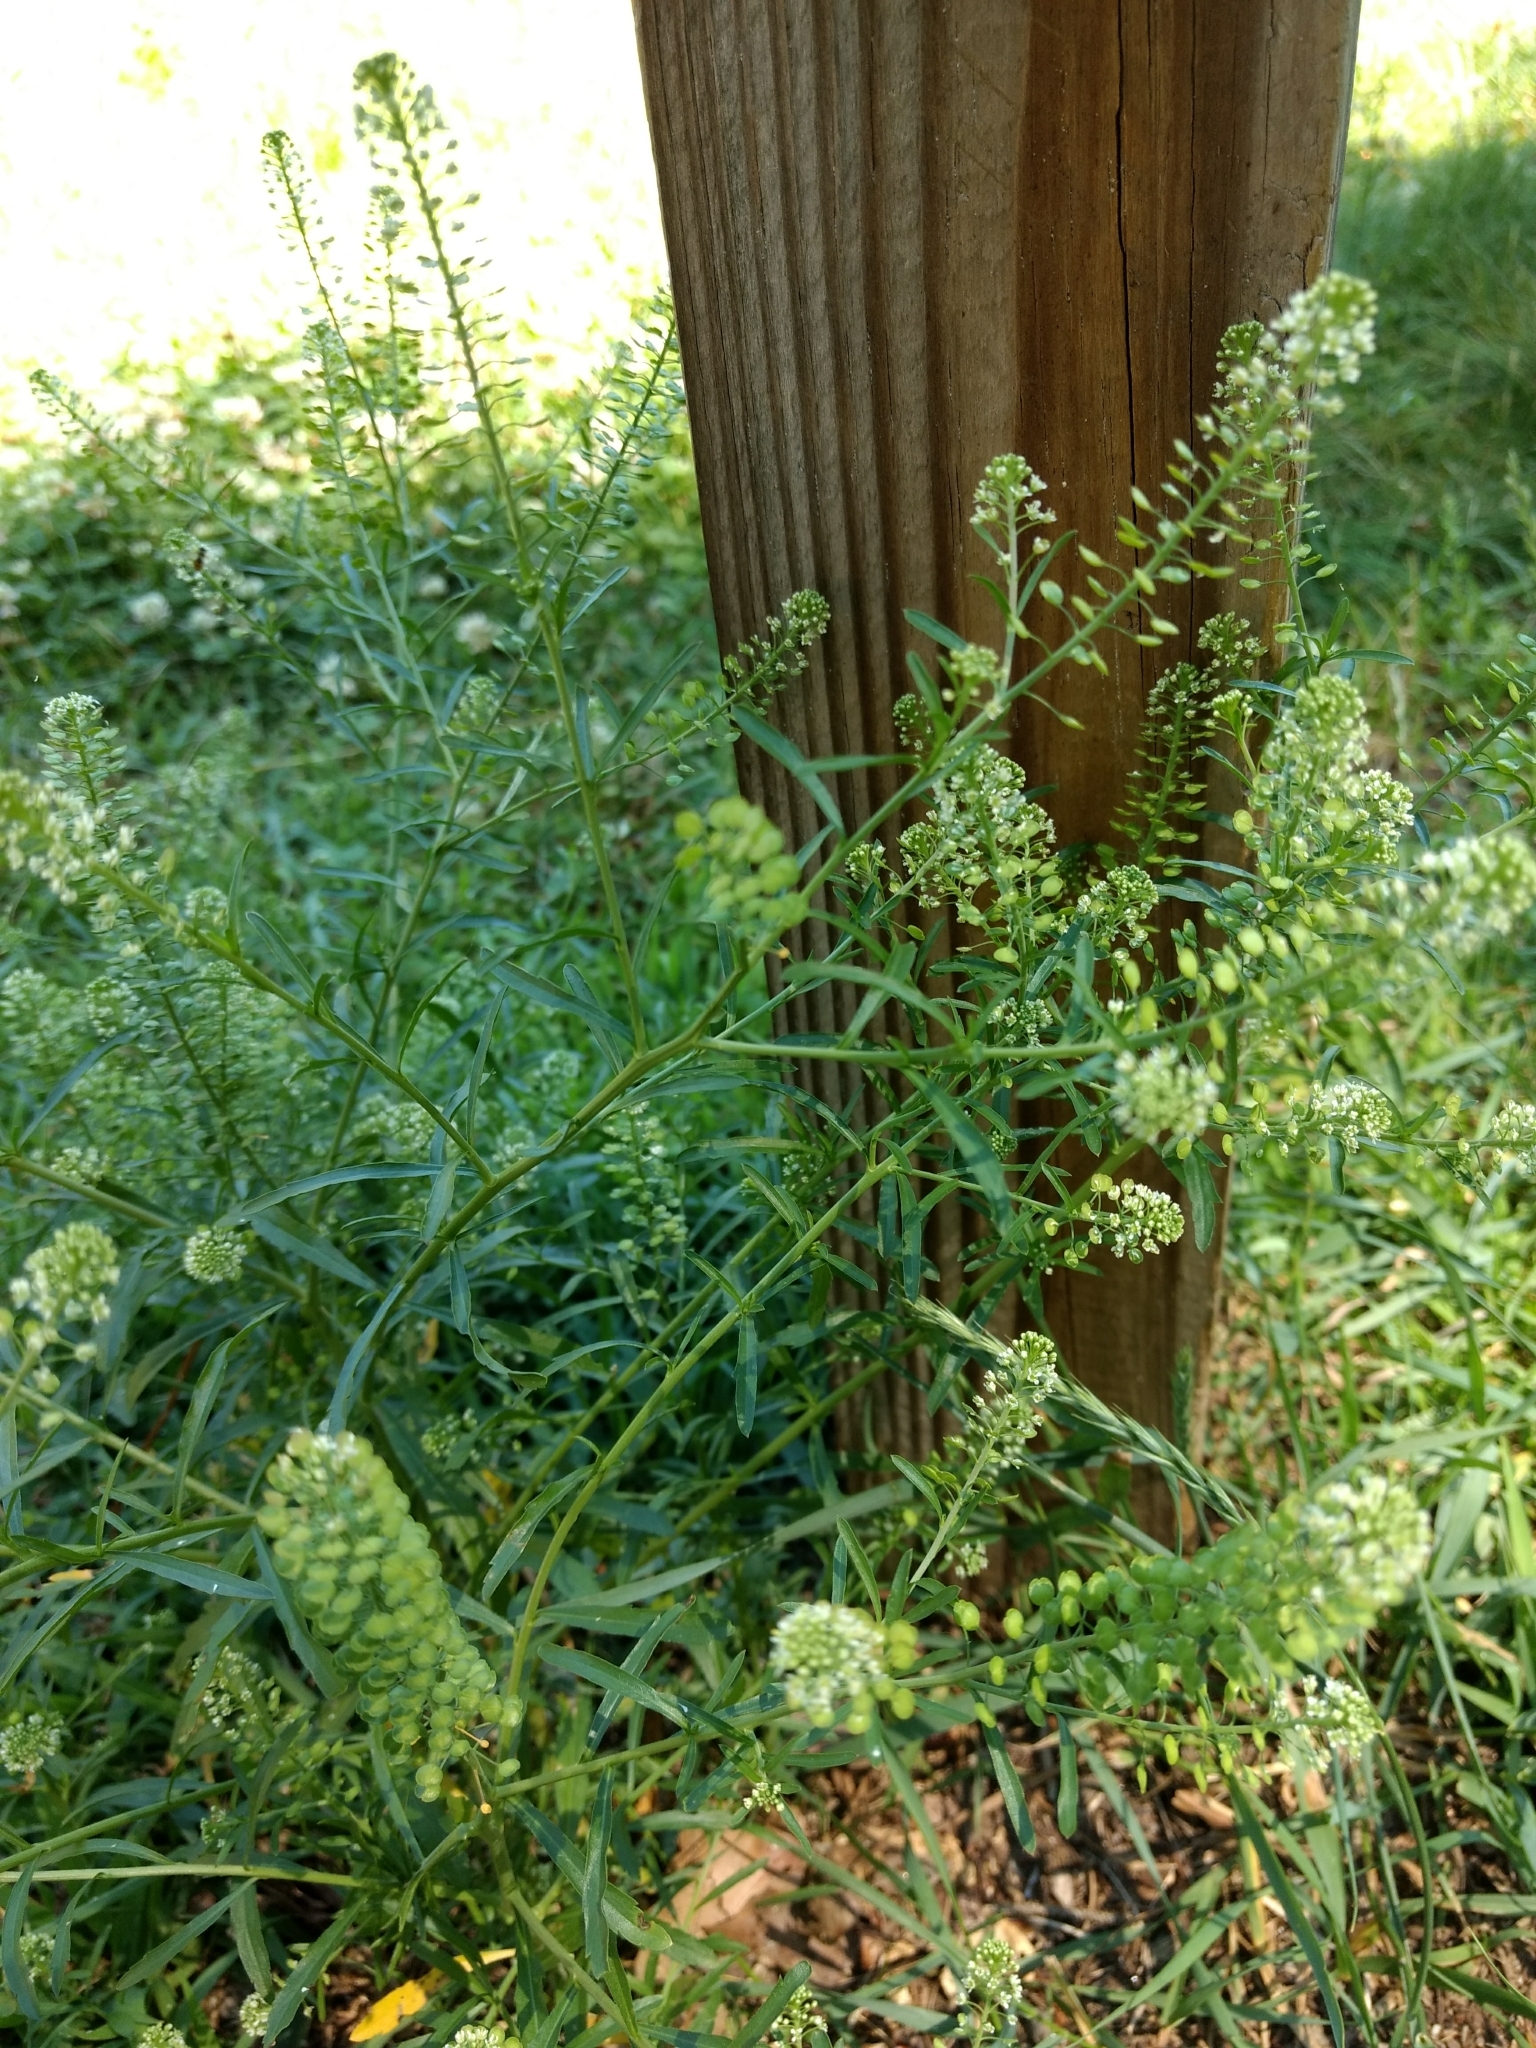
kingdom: Plantae
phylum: Tracheophyta
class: Magnoliopsida
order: Brassicales
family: Brassicaceae
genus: Lepidium
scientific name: Lepidium virginicum
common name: Least pepperwort
